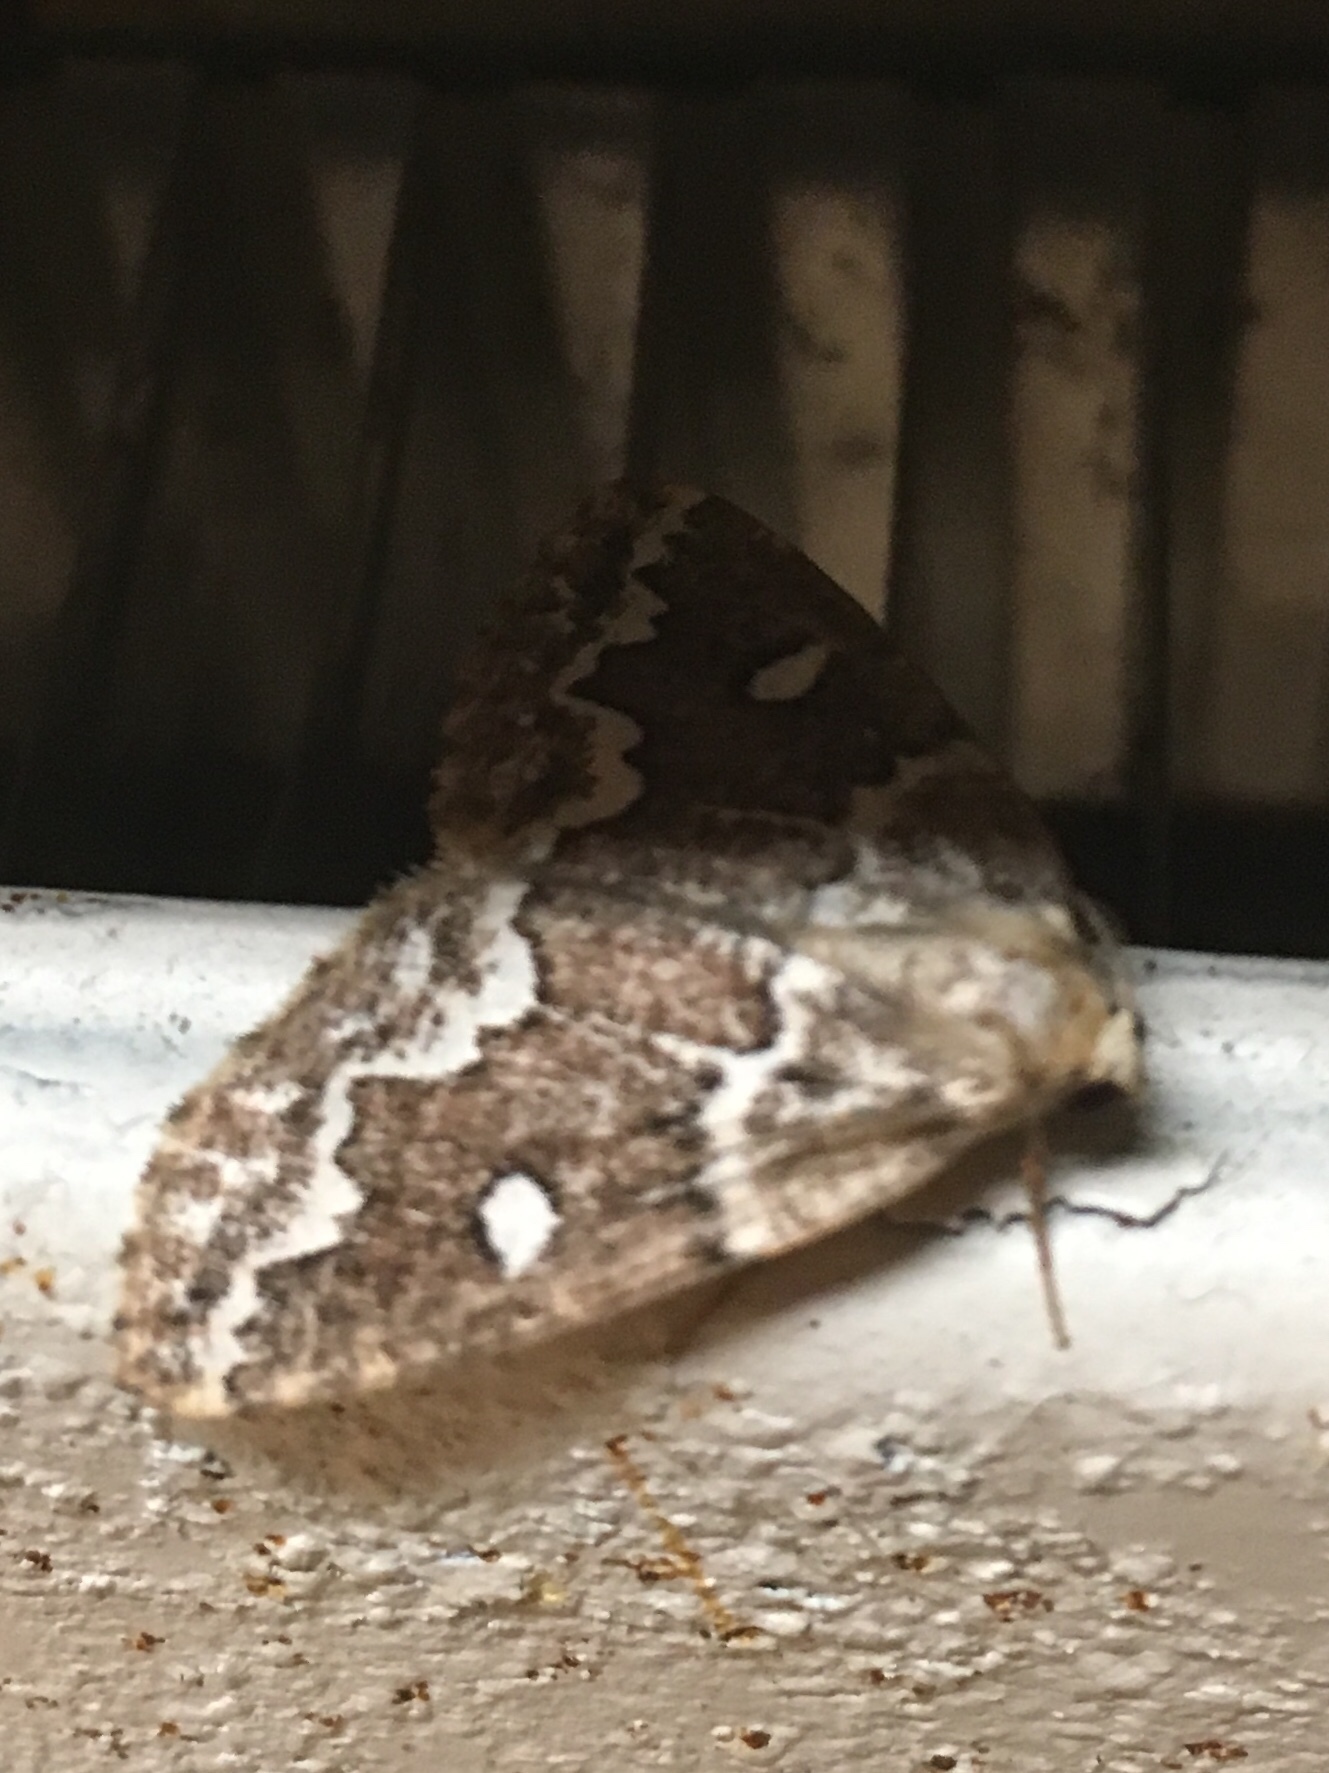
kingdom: Animalia
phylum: Arthropoda
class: Insecta
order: Lepidoptera
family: Geometridae
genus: Caripeta
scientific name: Caripeta divisata
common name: Gray spruce looper
